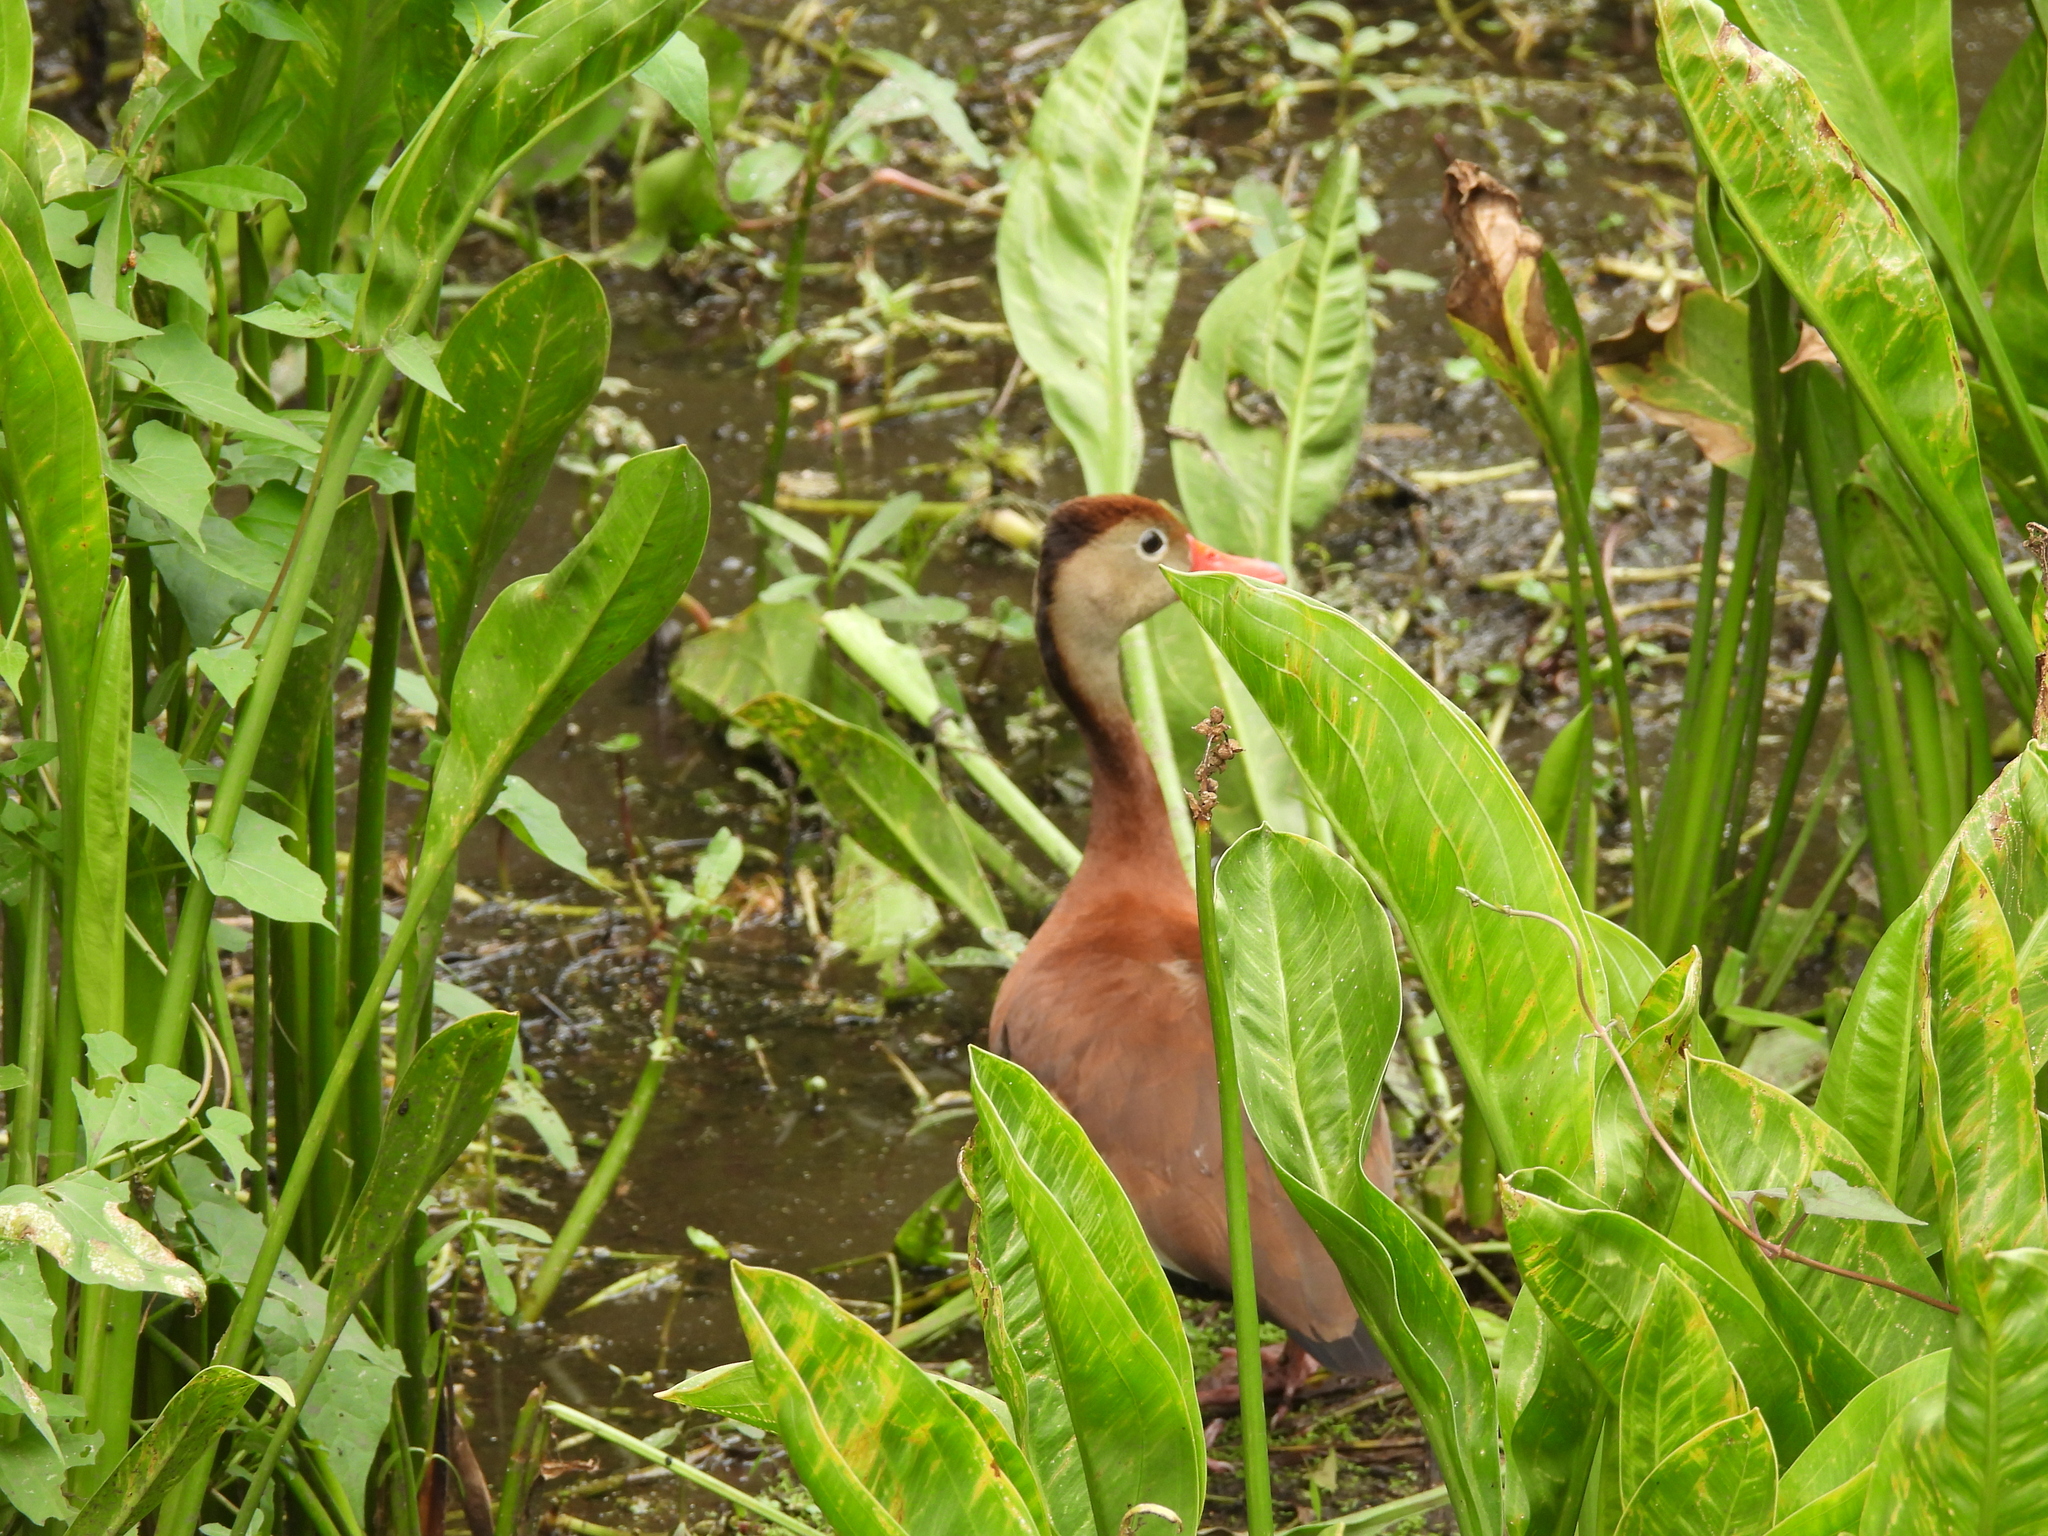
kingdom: Animalia
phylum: Chordata
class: Aves
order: Anseriformes
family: Anatidae
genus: Dendrocygna
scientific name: Dendrocygna autumnalis
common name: Black-bellied whistling duck
